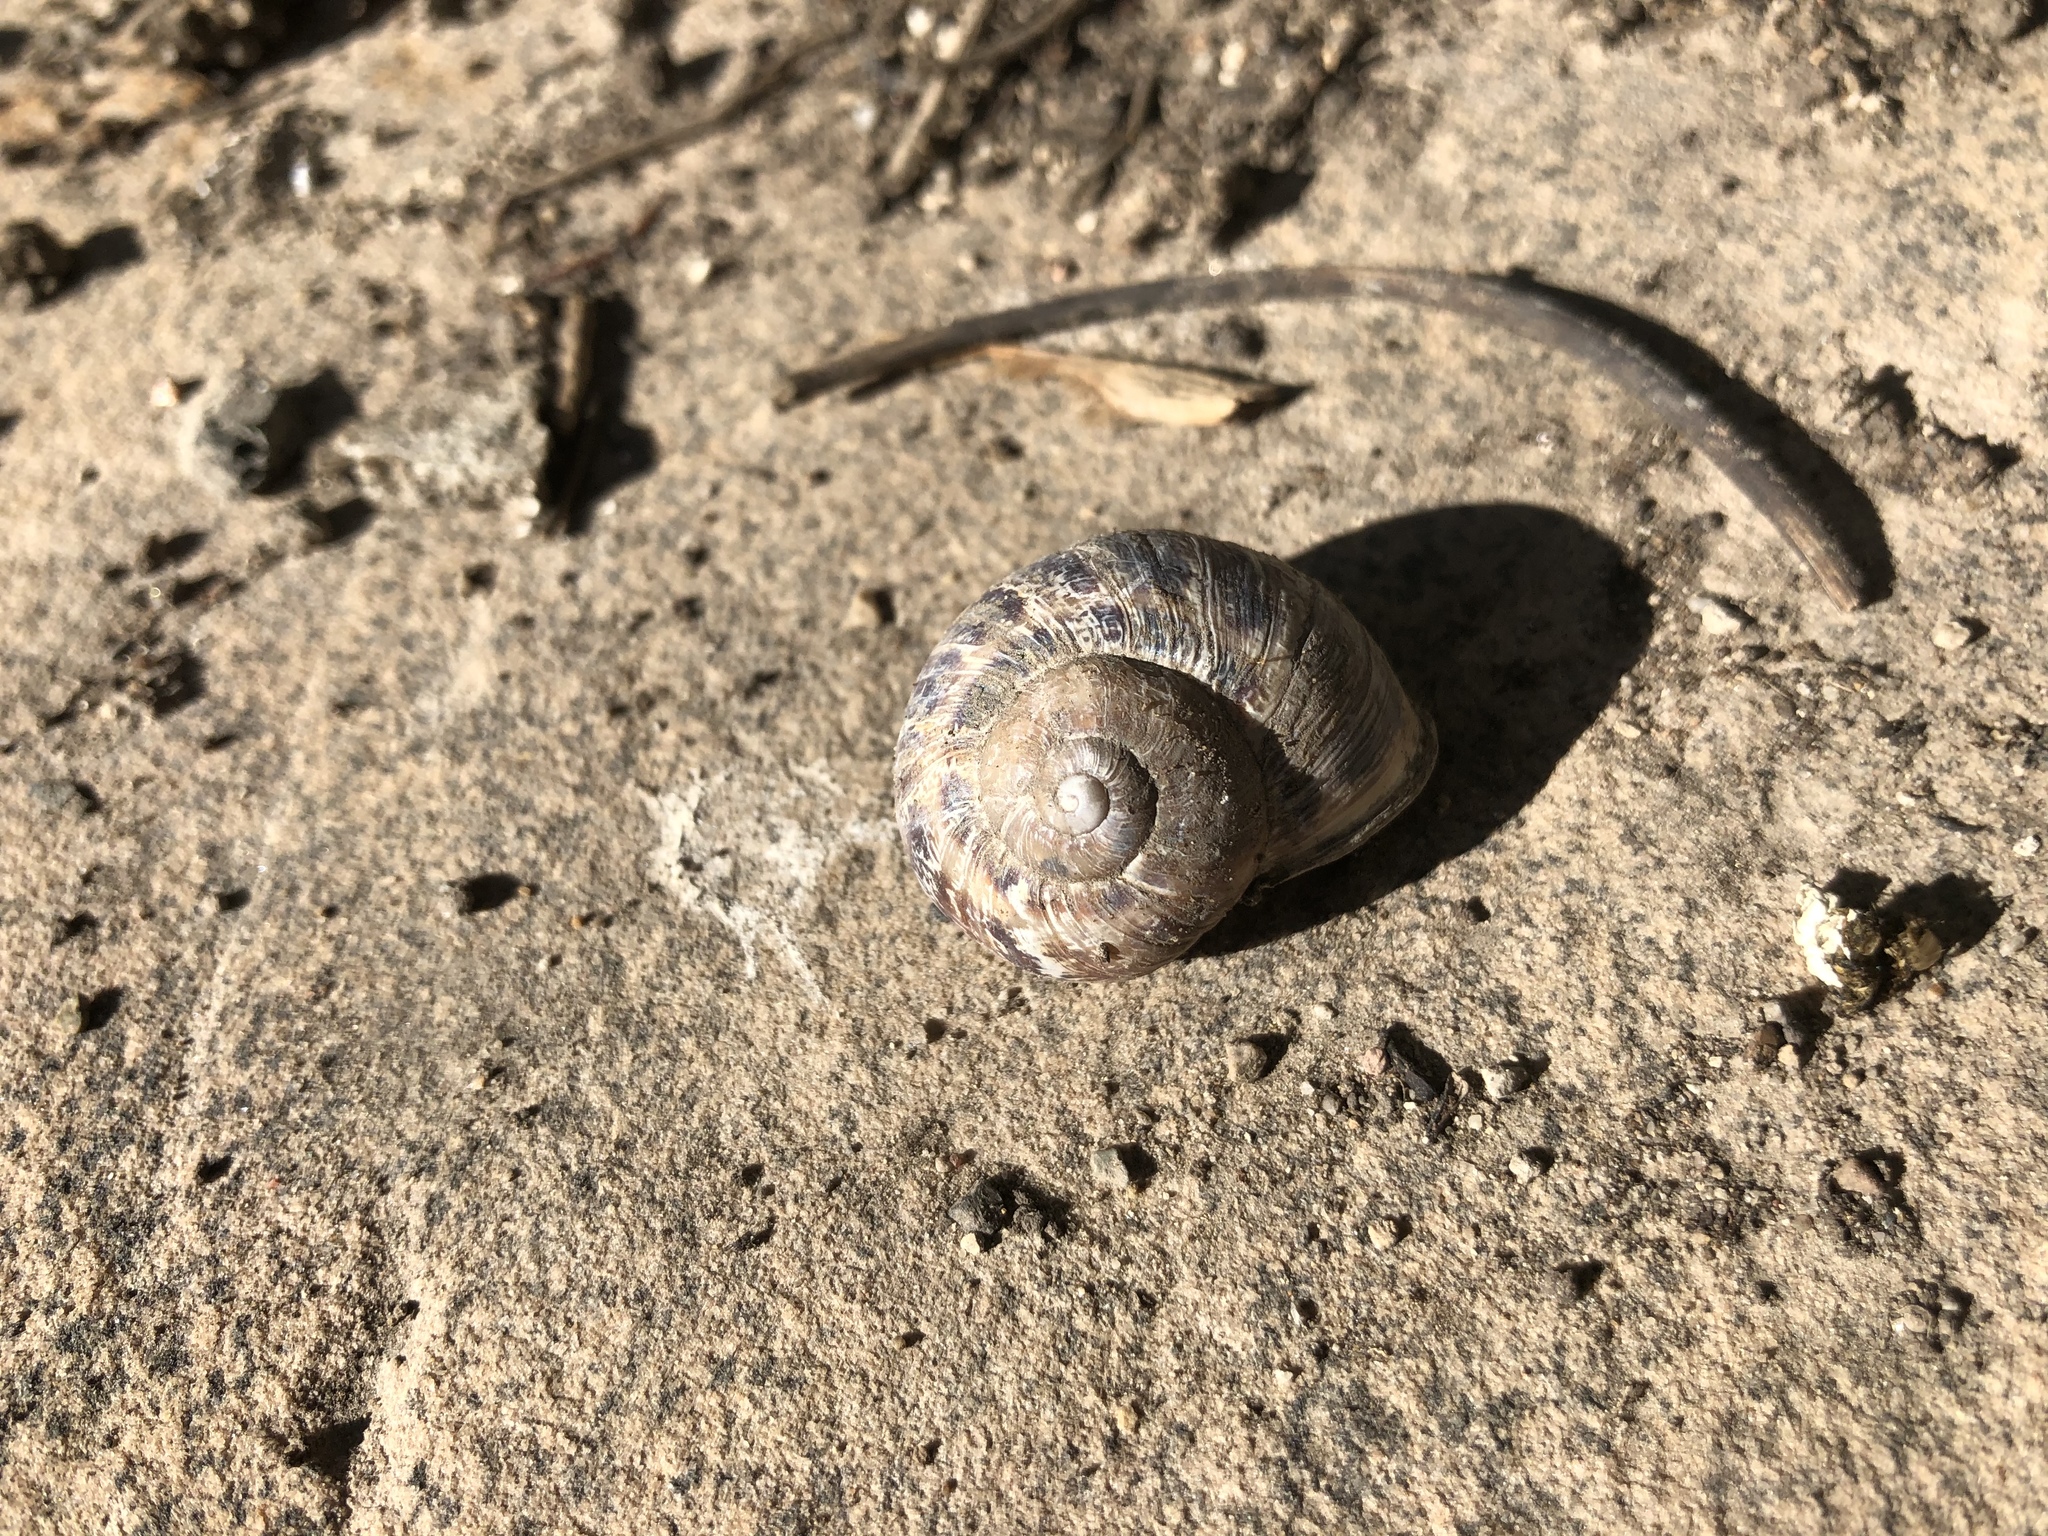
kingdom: Animalia
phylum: Mollusca
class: Gastropoda
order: Stylommatophora
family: Helicidae
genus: Cornu
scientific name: Cornu aspersum
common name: Brown garden snail
